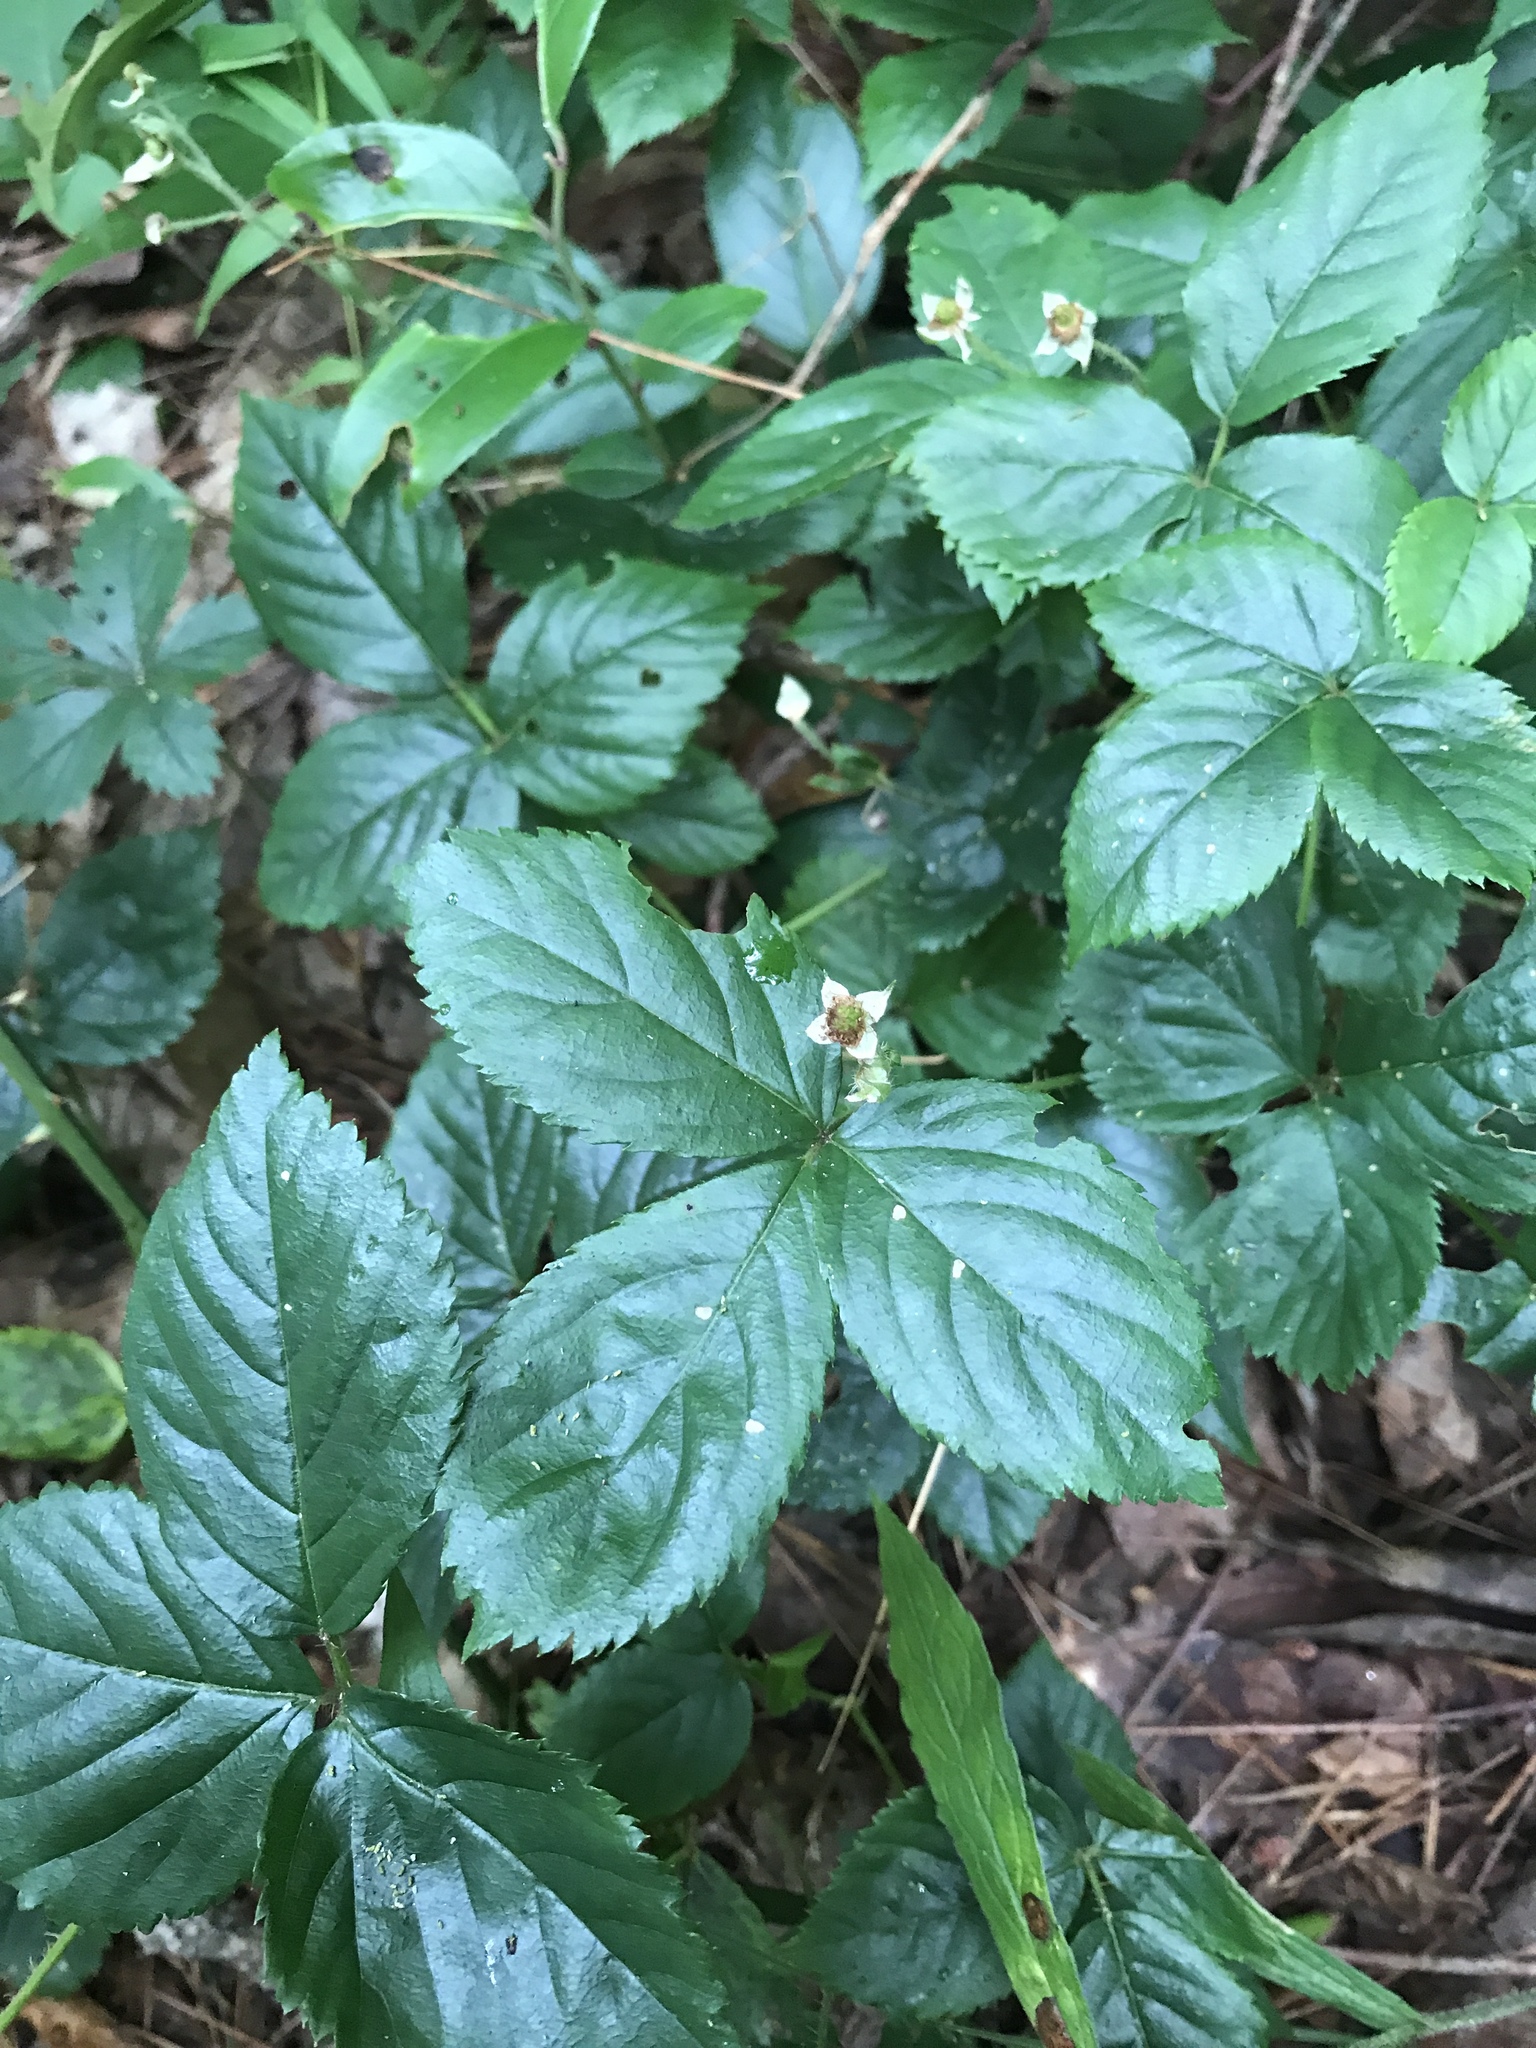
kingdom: Plantae
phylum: Tracheophyta
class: Magnoliopsida
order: Rosales
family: Rosaceae
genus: Rubus
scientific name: Rubus hispidus
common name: Running blackberry
